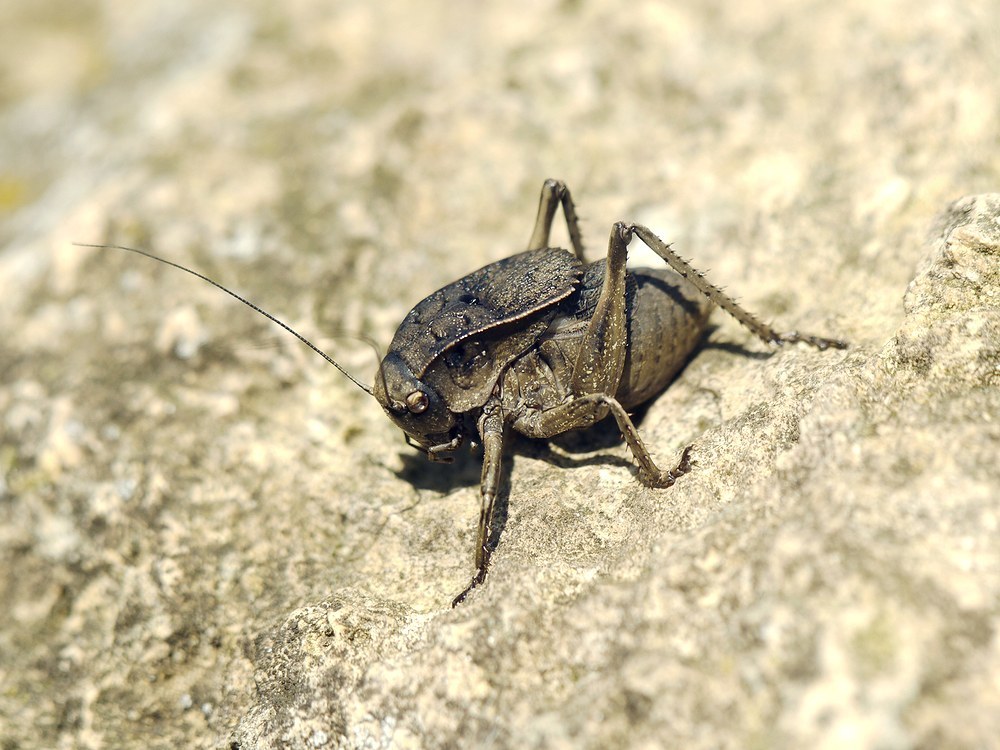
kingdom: Animalia
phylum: Arthropoda
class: Insecta
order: Orthoptera
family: Tettigoniidae
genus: Onconotus
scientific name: Onconotus servillei
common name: Southern barbed-wire bush-cricket
